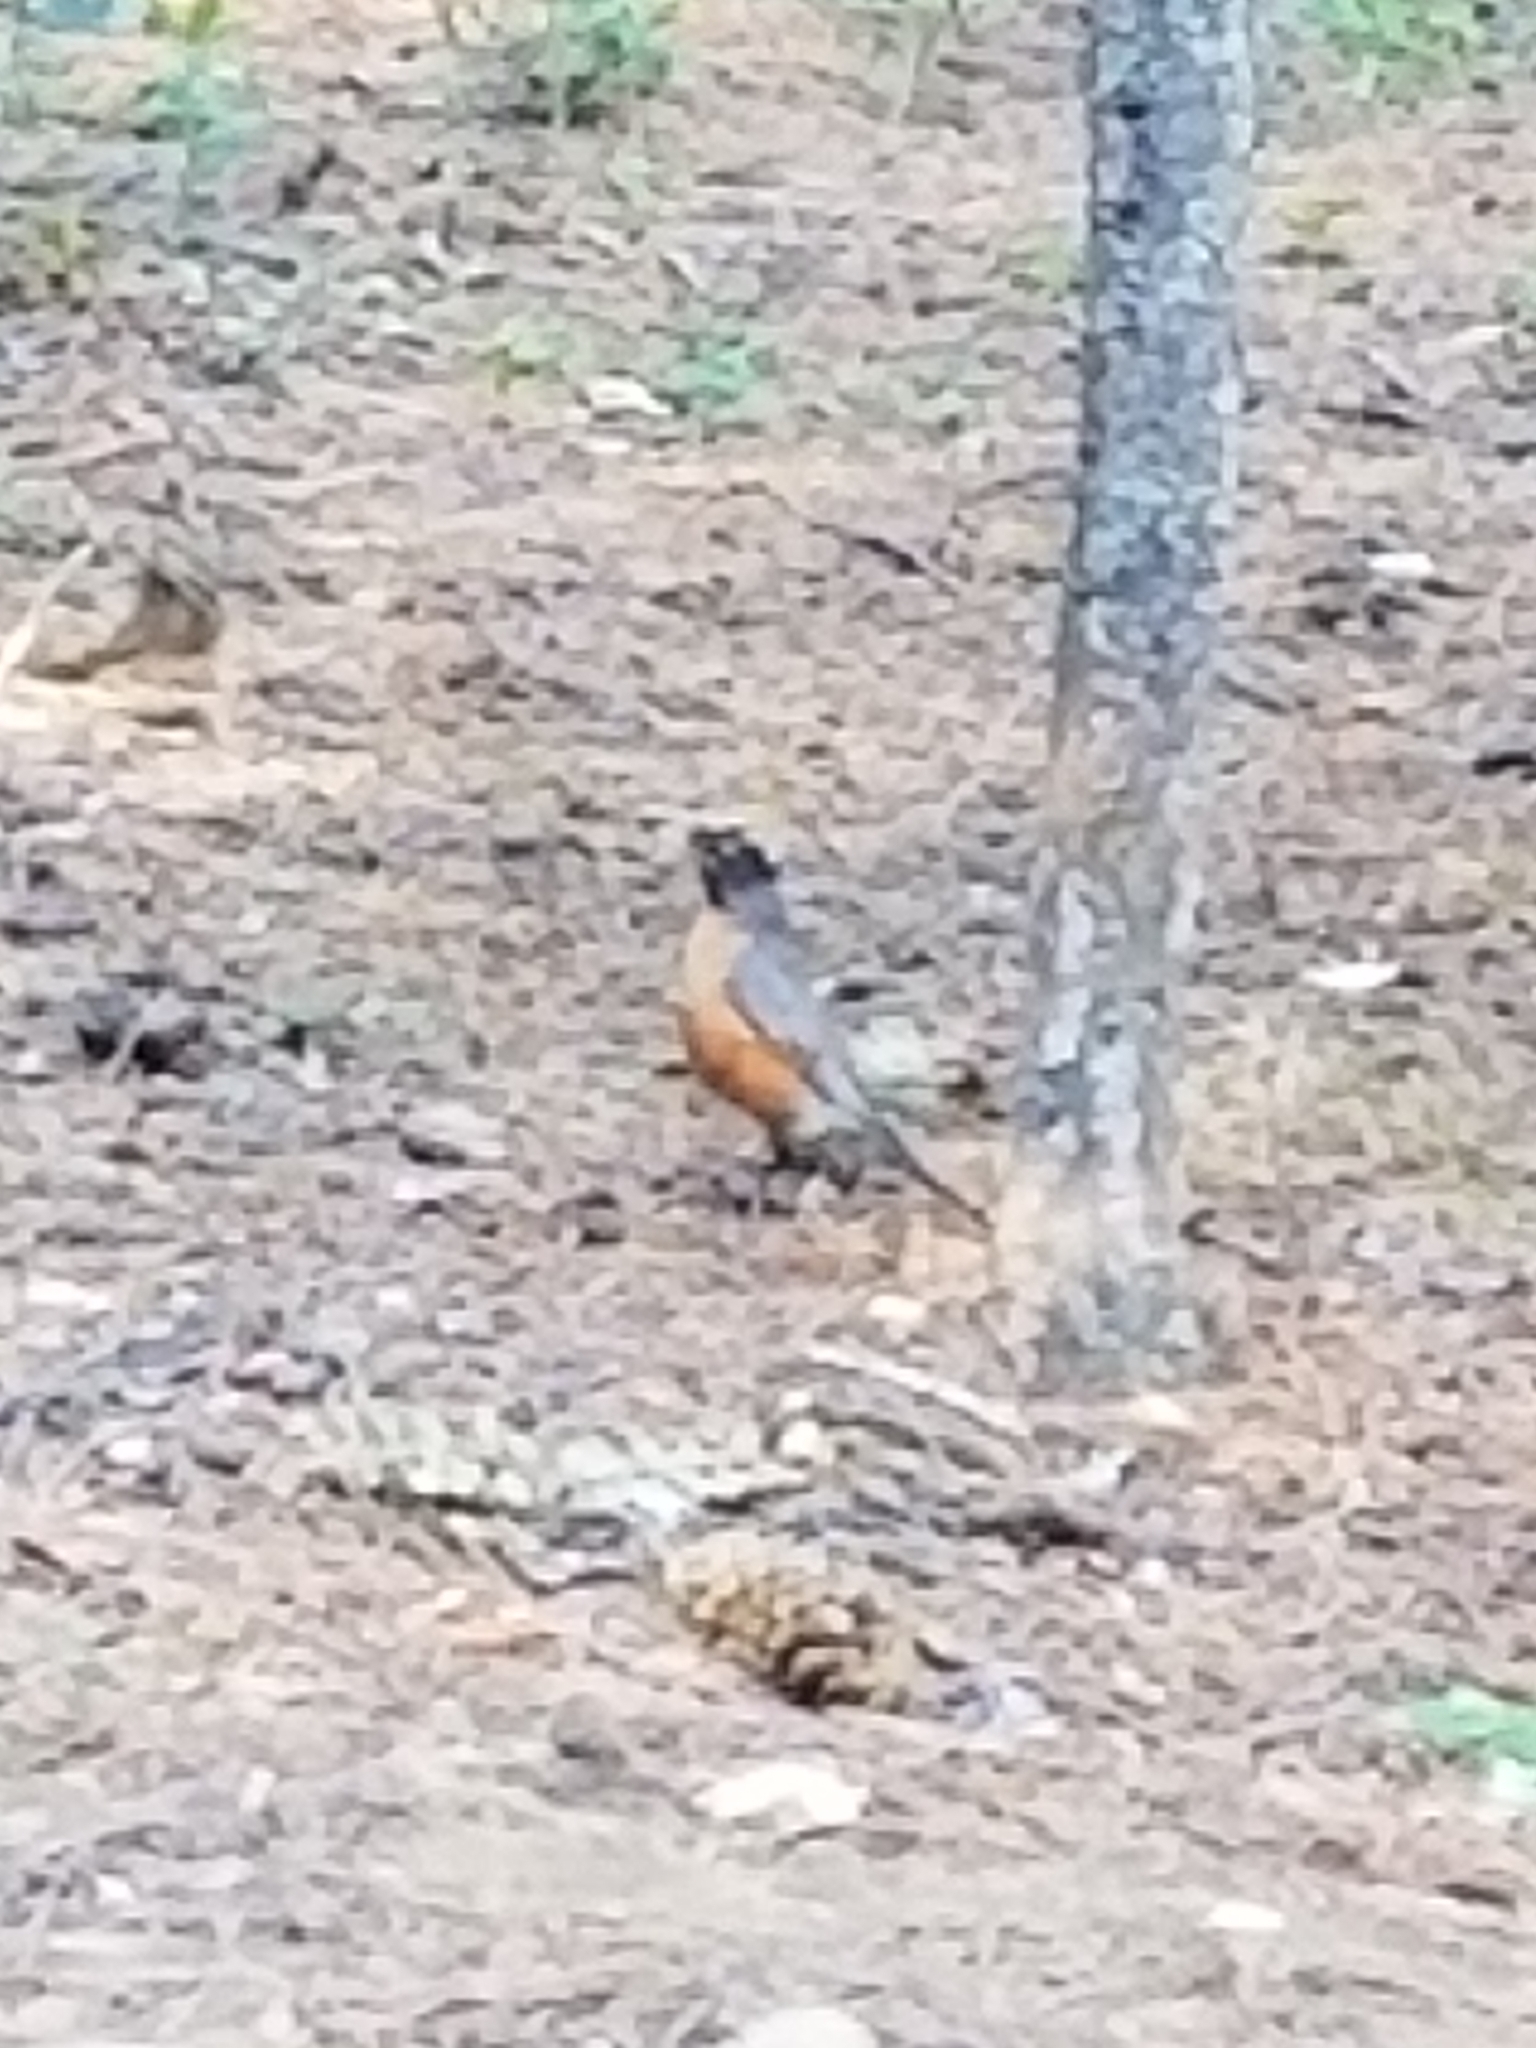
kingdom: Animalia
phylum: Chordata
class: Aves
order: Passeriformes
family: Turdidae
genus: Turdus
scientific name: Turdus migratorius
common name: American robin
